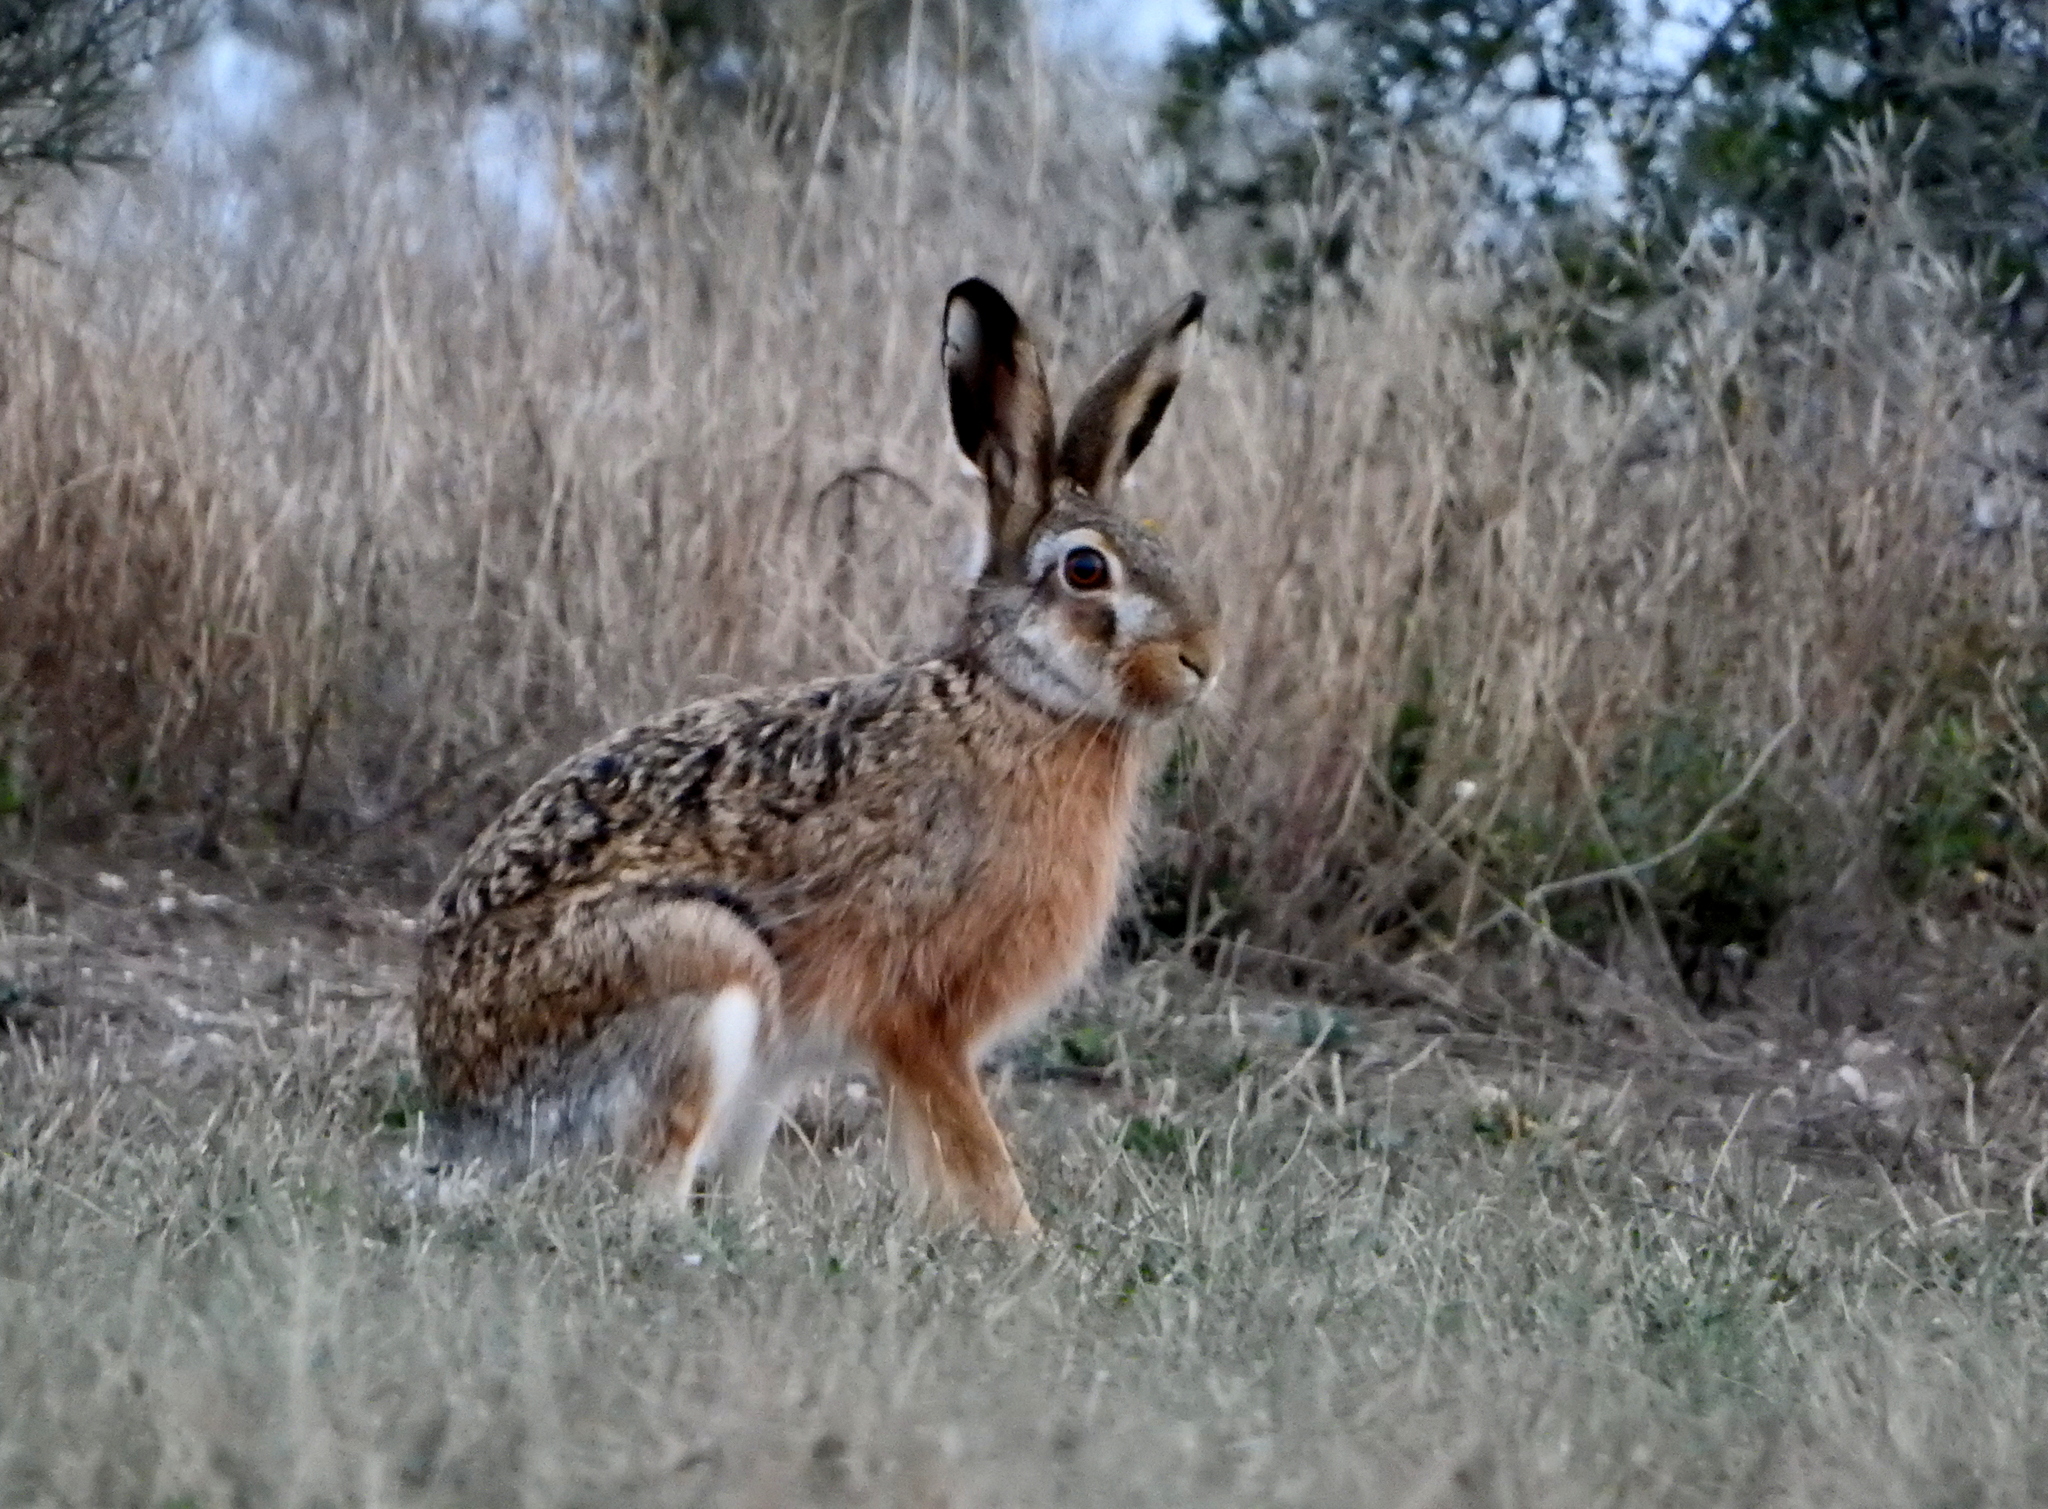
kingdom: Animalia
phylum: Chordata
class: Mammalia
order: Lagomorpha
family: Leporidae
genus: Lepus
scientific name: Lepus europaeus
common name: European hare
